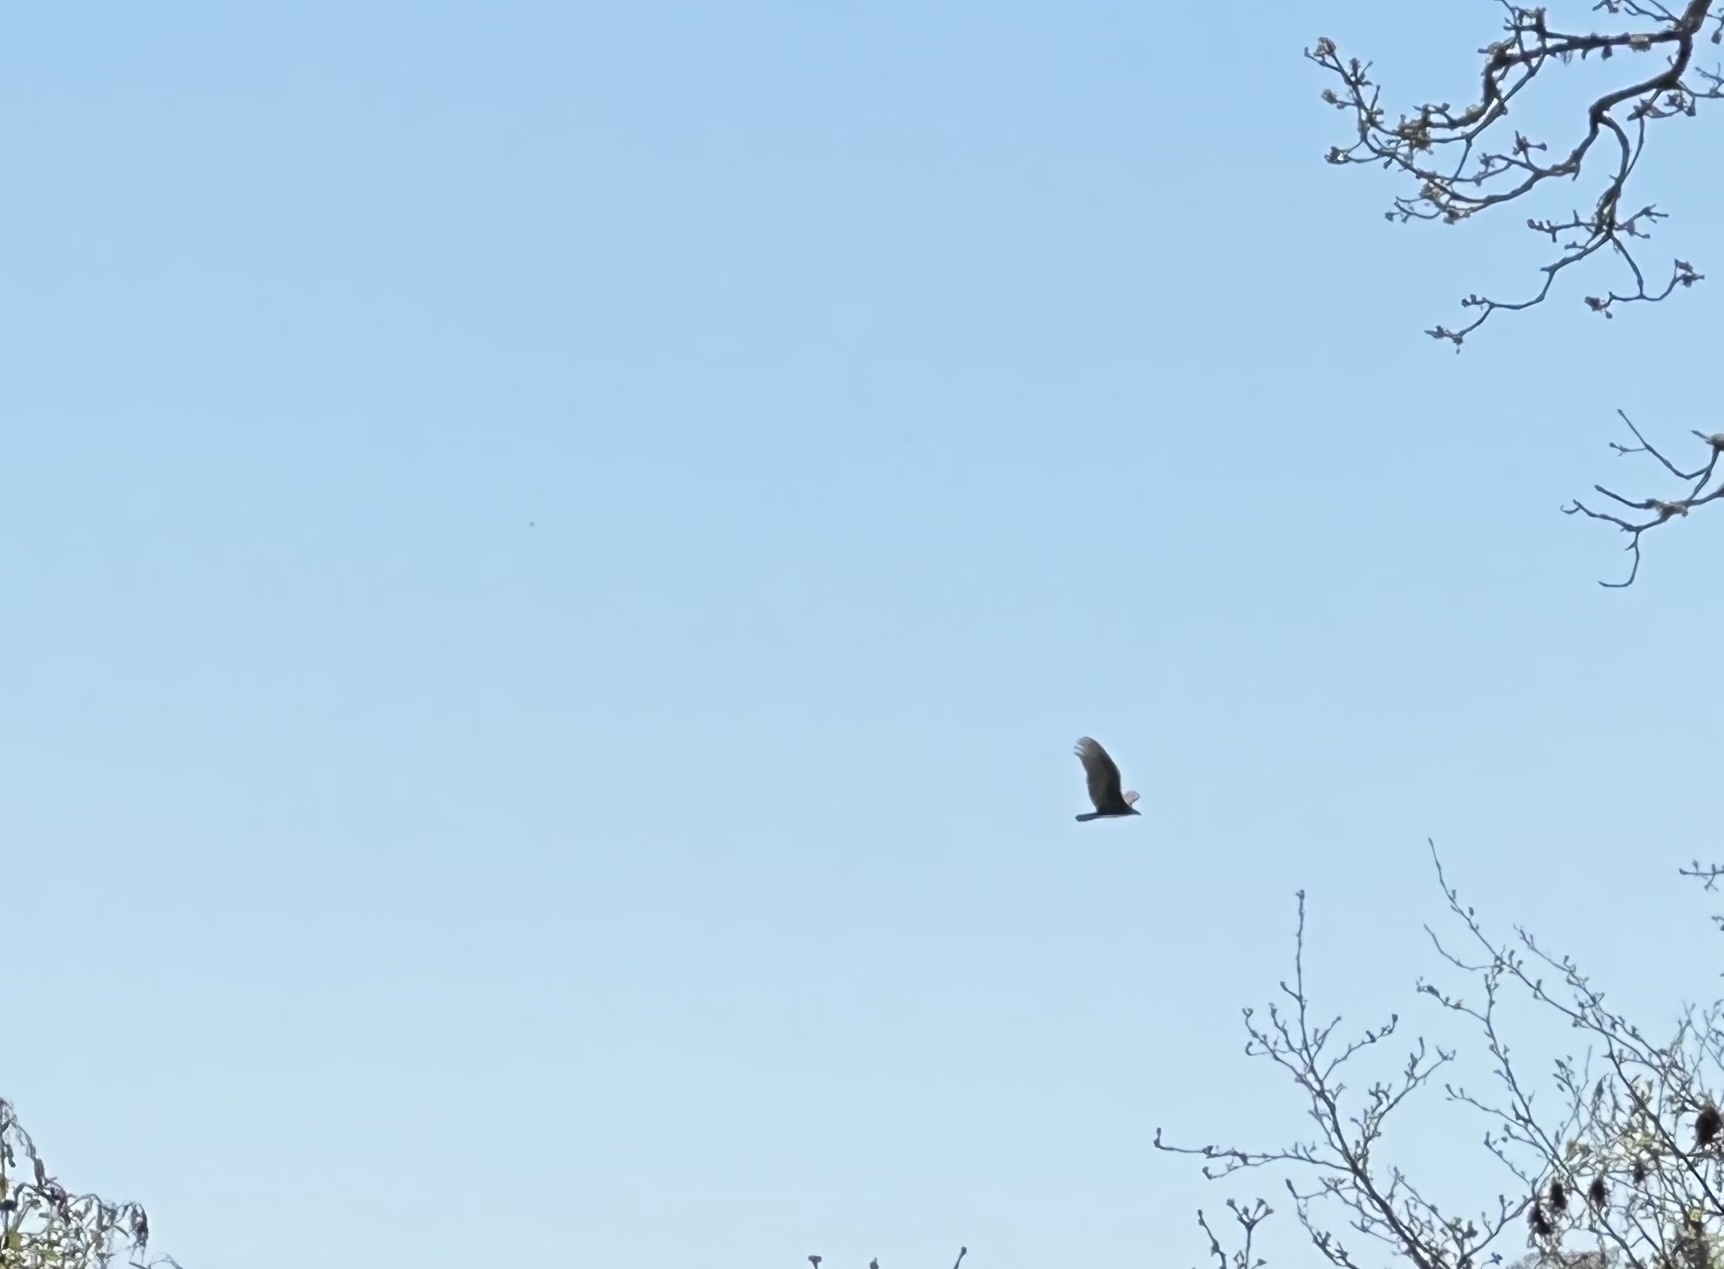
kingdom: Animalia
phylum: Chordata
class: Aves
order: Accipitriformes
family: Cathartidae
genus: Cathartes
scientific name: Cathartes aura
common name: Turkey vulture
